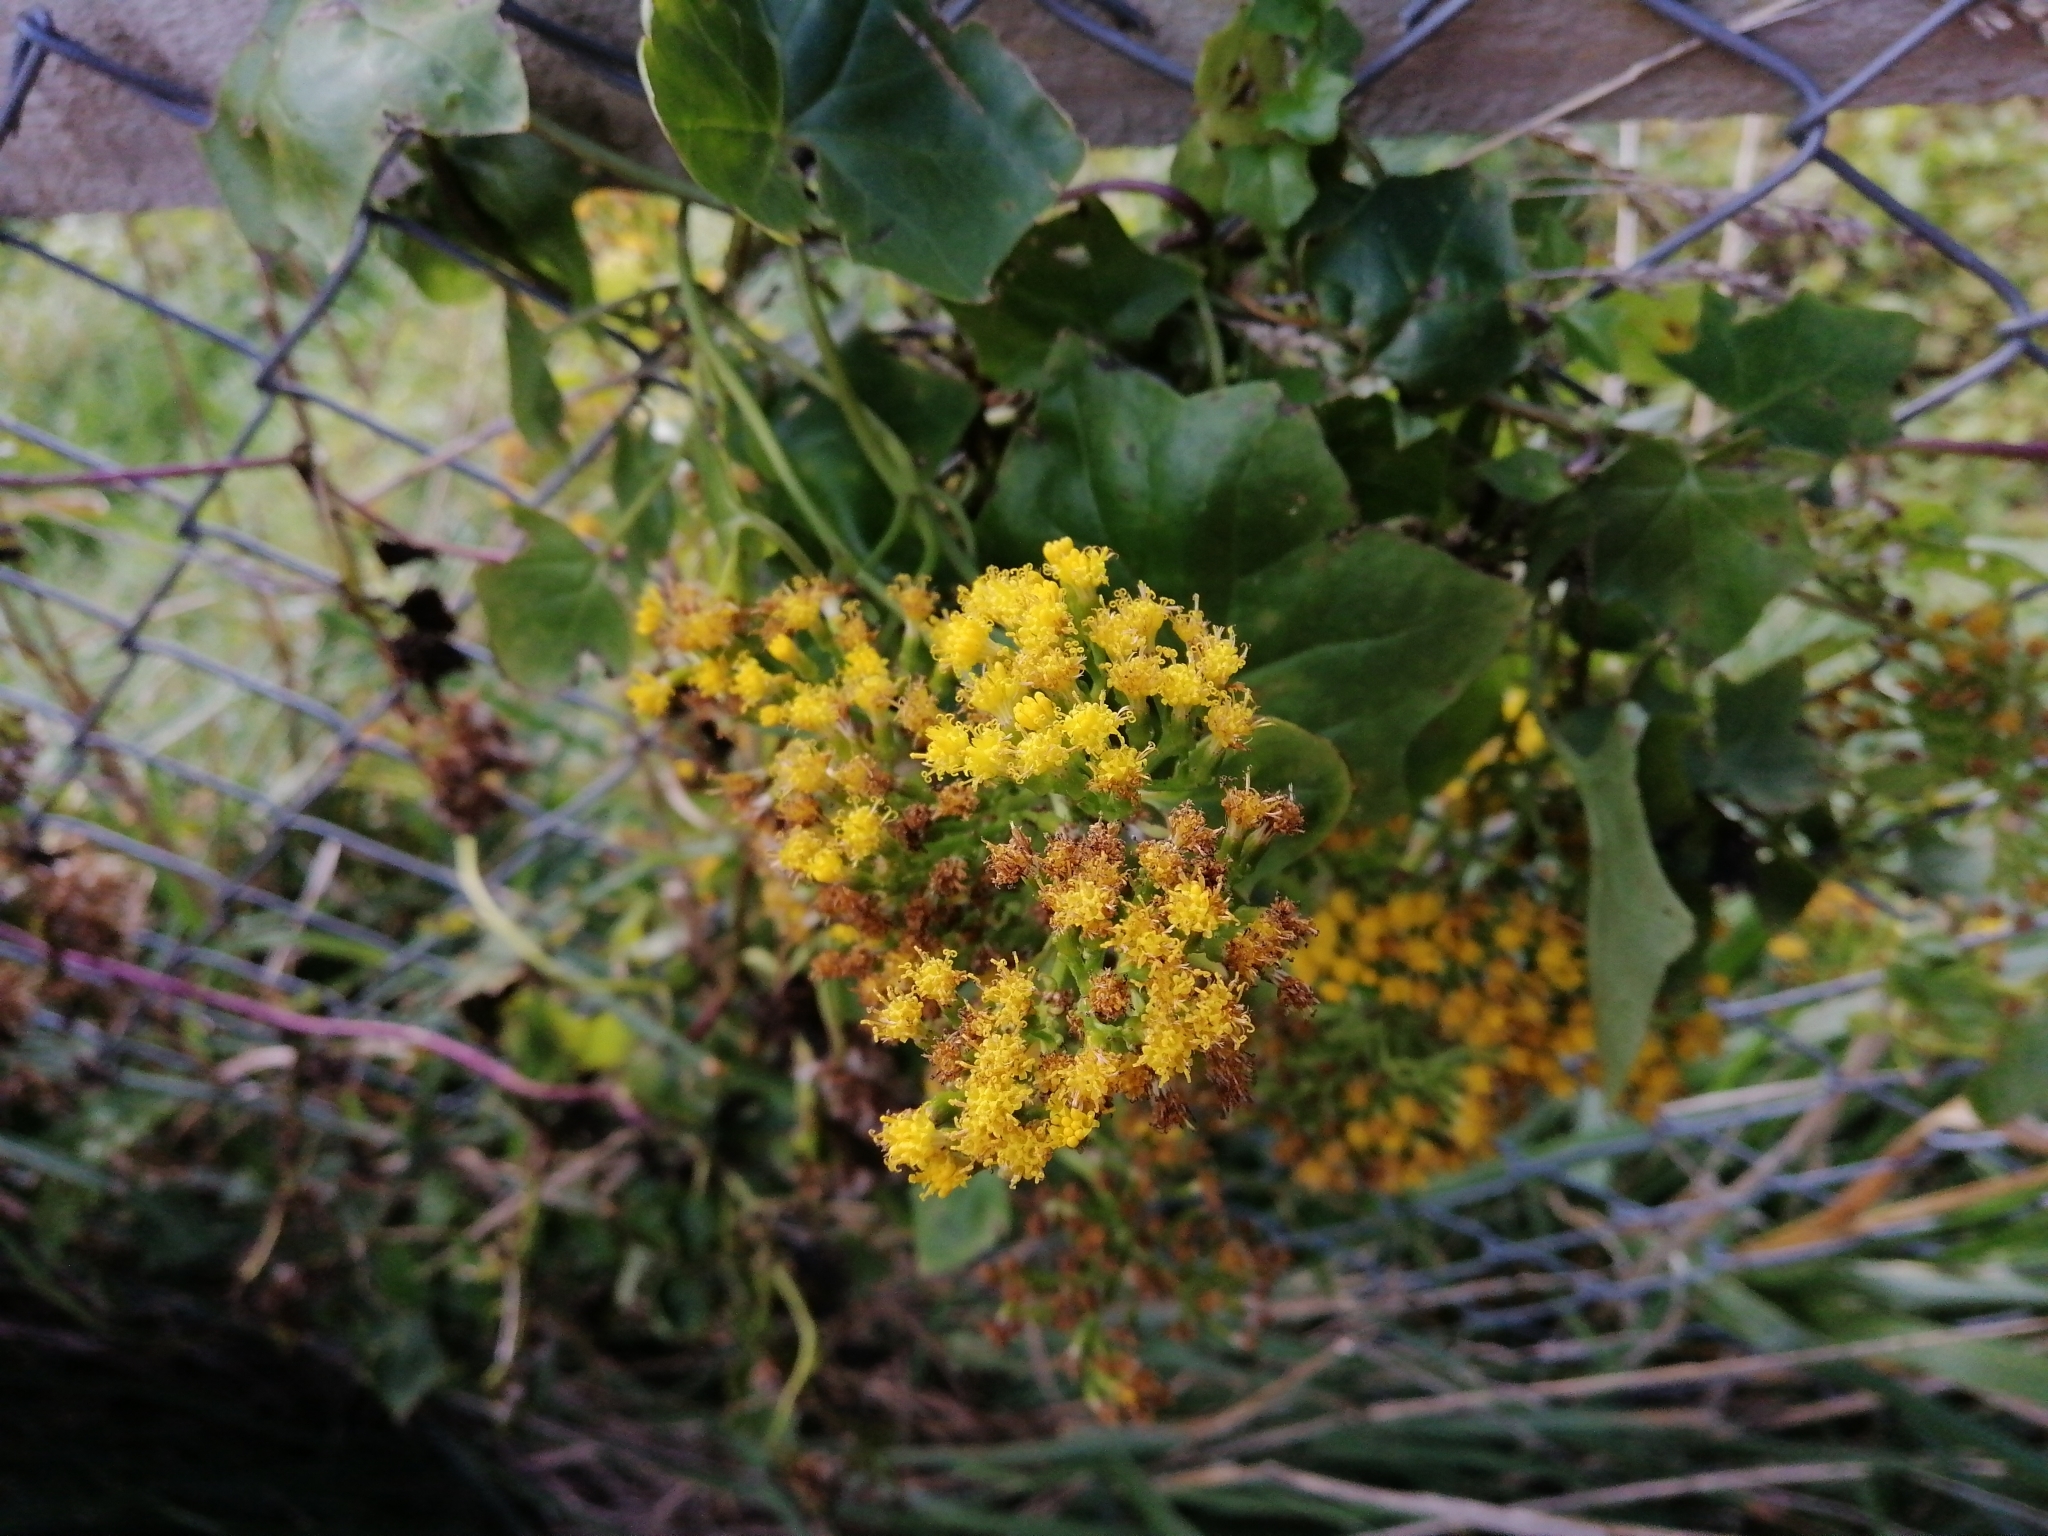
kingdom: Plantae
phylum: Tracheophyta
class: Magnoliopsida
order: Asterales
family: Asteraceae
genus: Delairea
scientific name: Delairea odorata
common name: Cape-ivy
